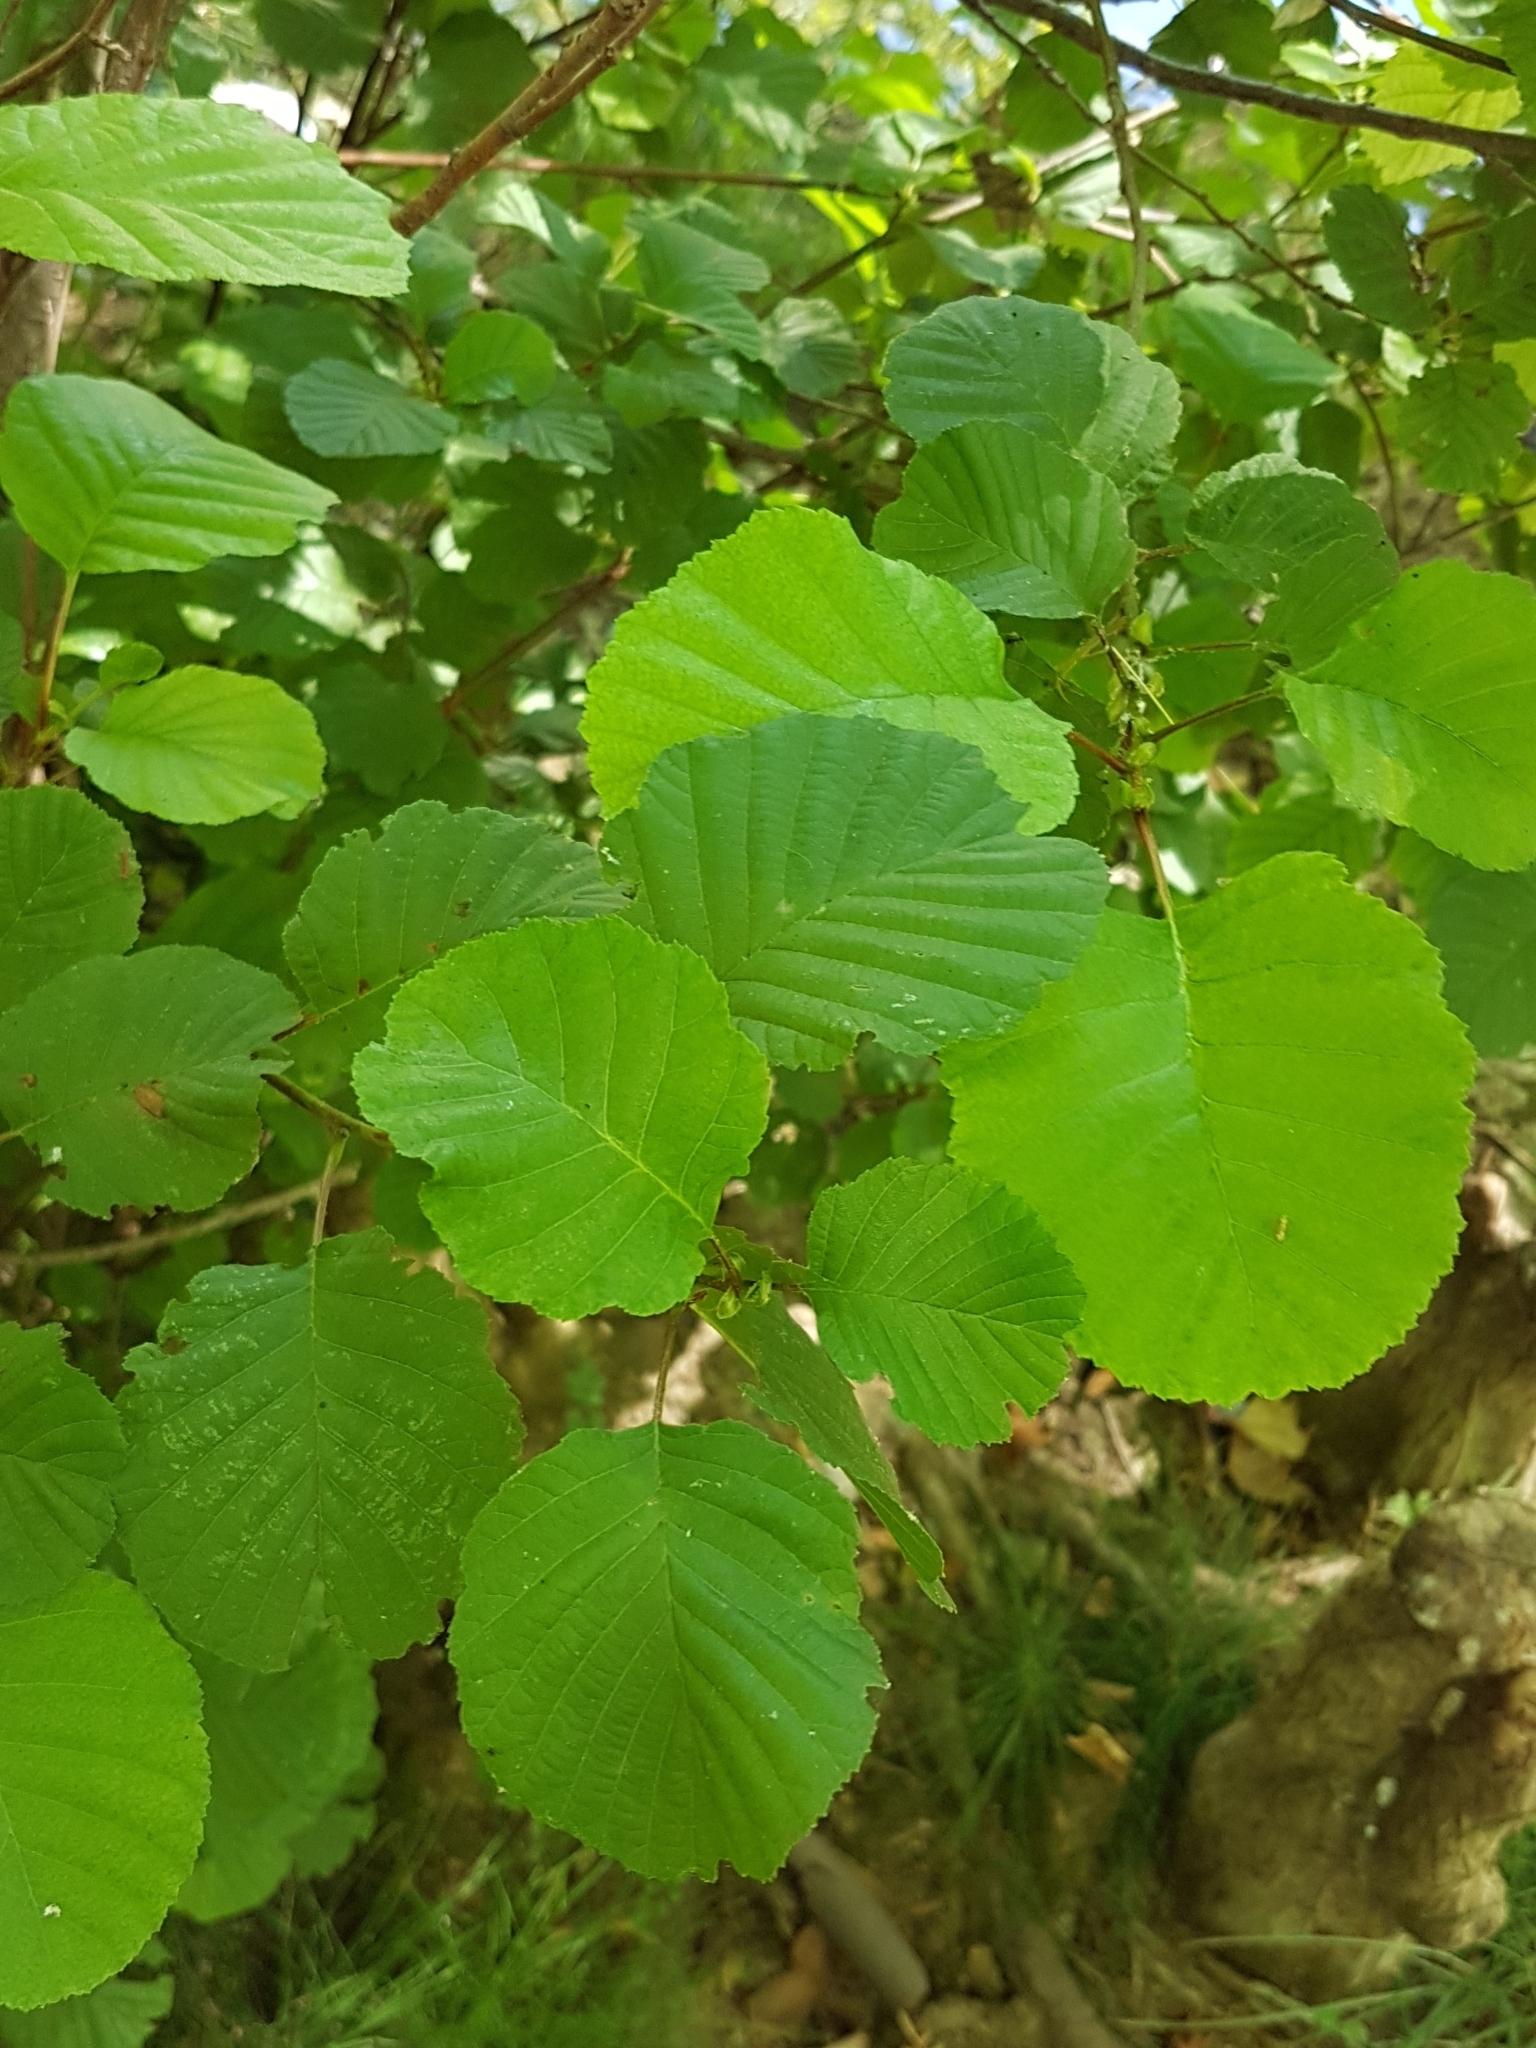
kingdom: Plantae
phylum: Tracheophyta
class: Magnoliopsida
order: Fagales
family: Betulaceae
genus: Alnus
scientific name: Alnus glutinosa
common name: Black alder
